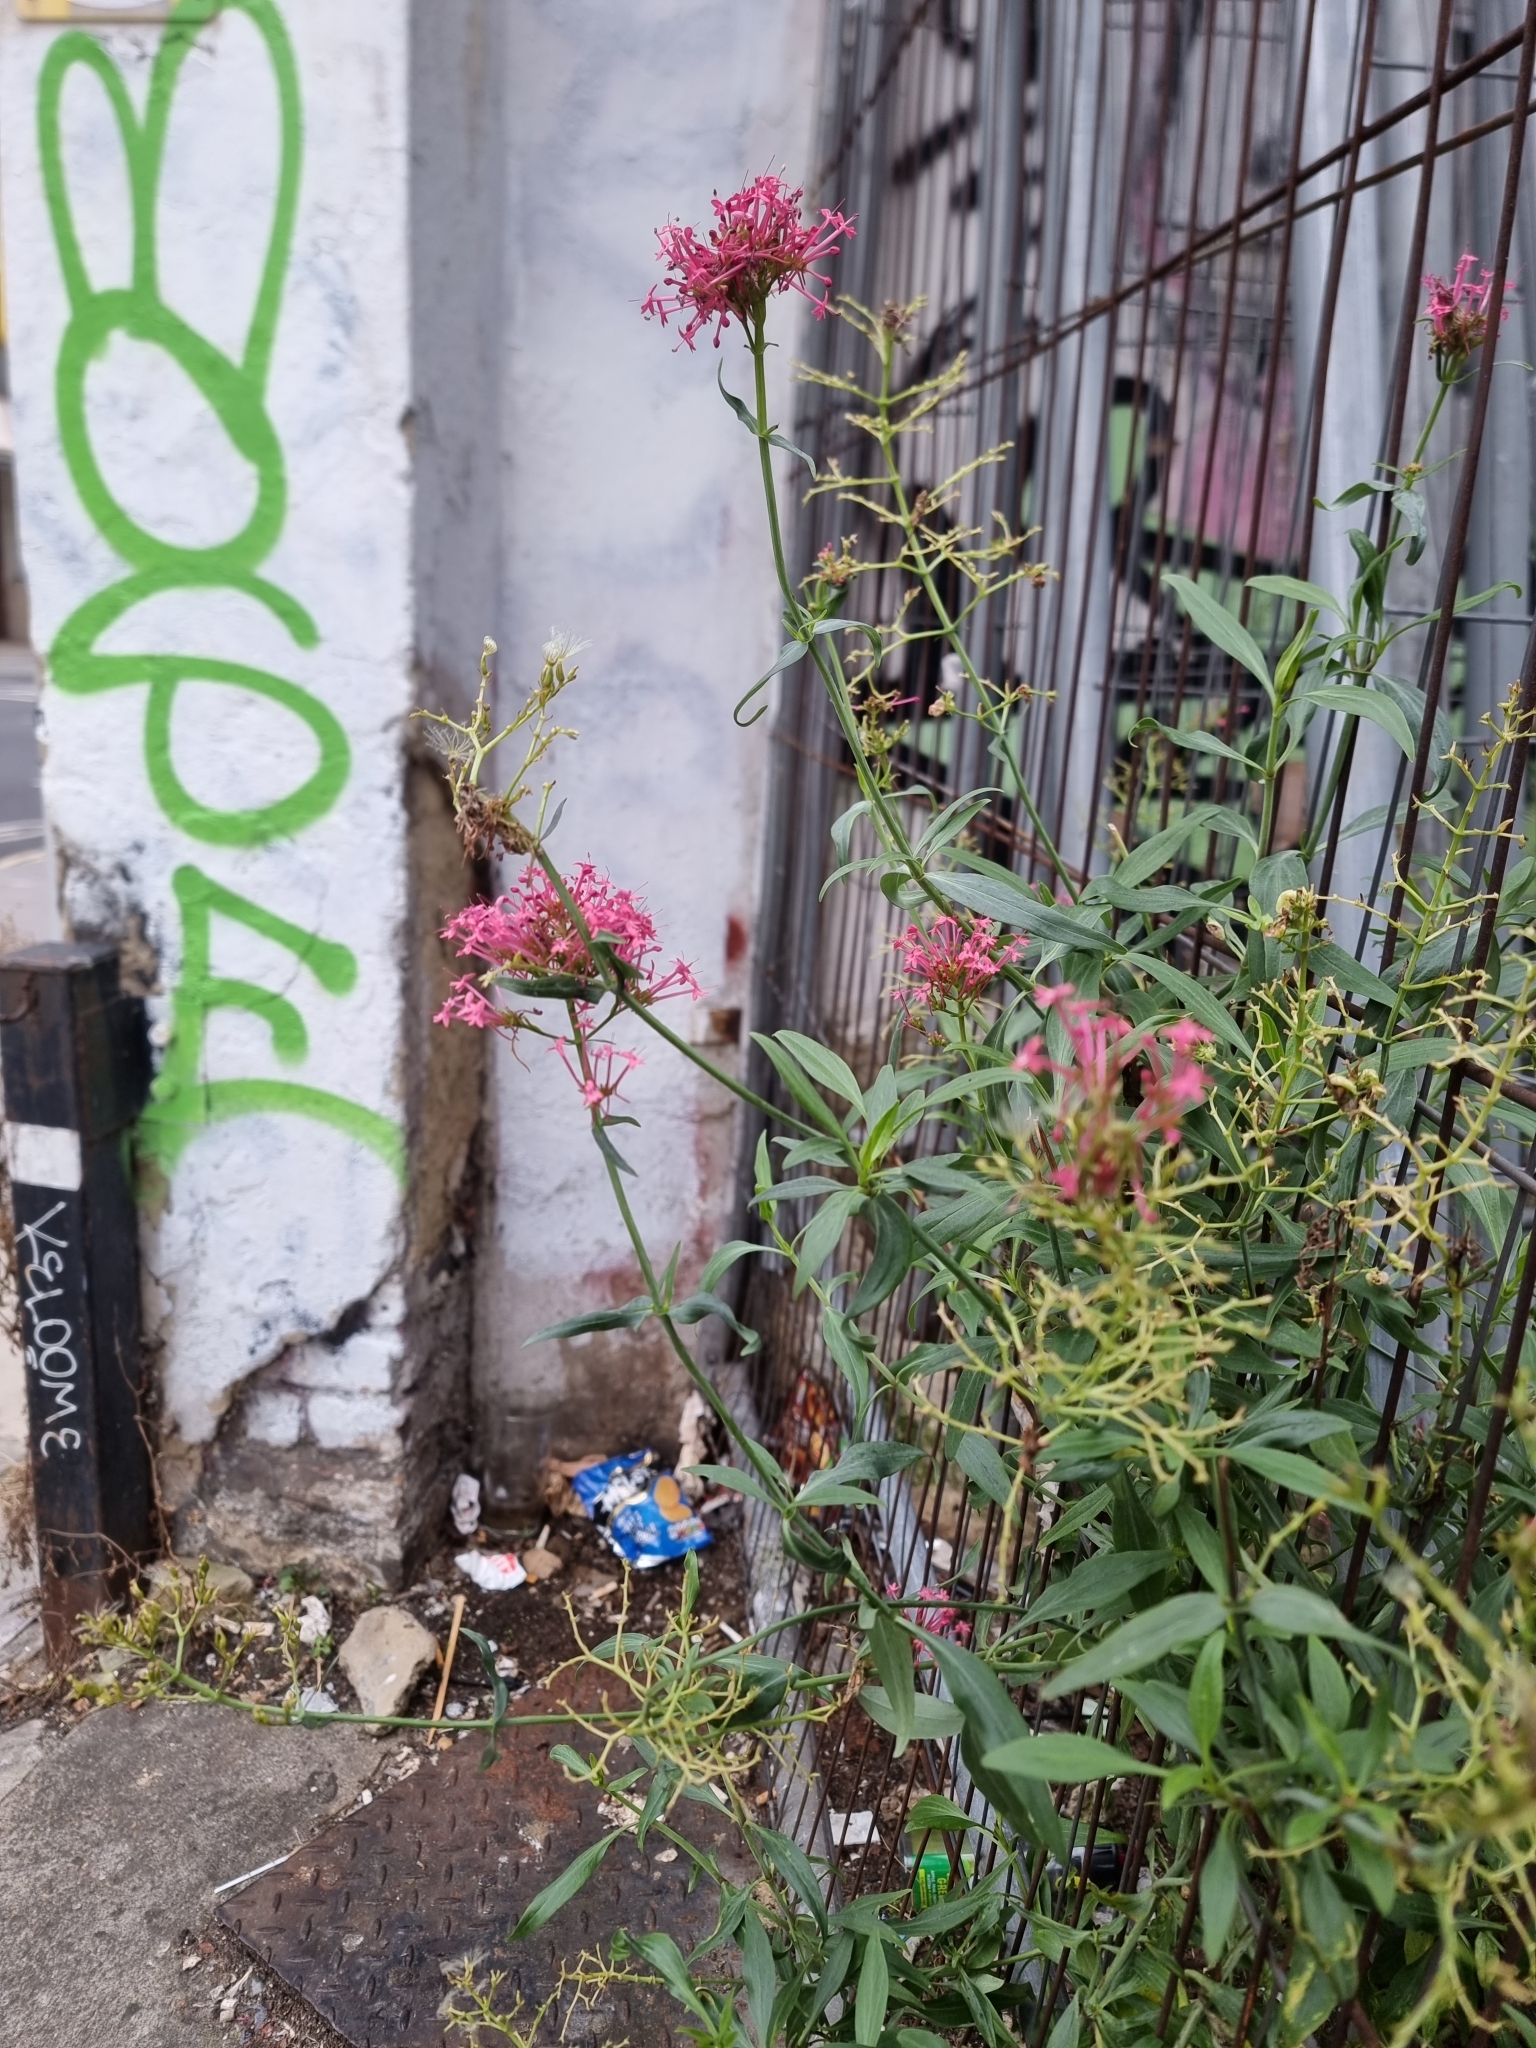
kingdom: Plantae
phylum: Tracheophyta
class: Magnoliopsida
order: Dipsacales
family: Caprifoliaceae
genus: Centranthus
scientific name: Centranthus ruber
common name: Red valerian
